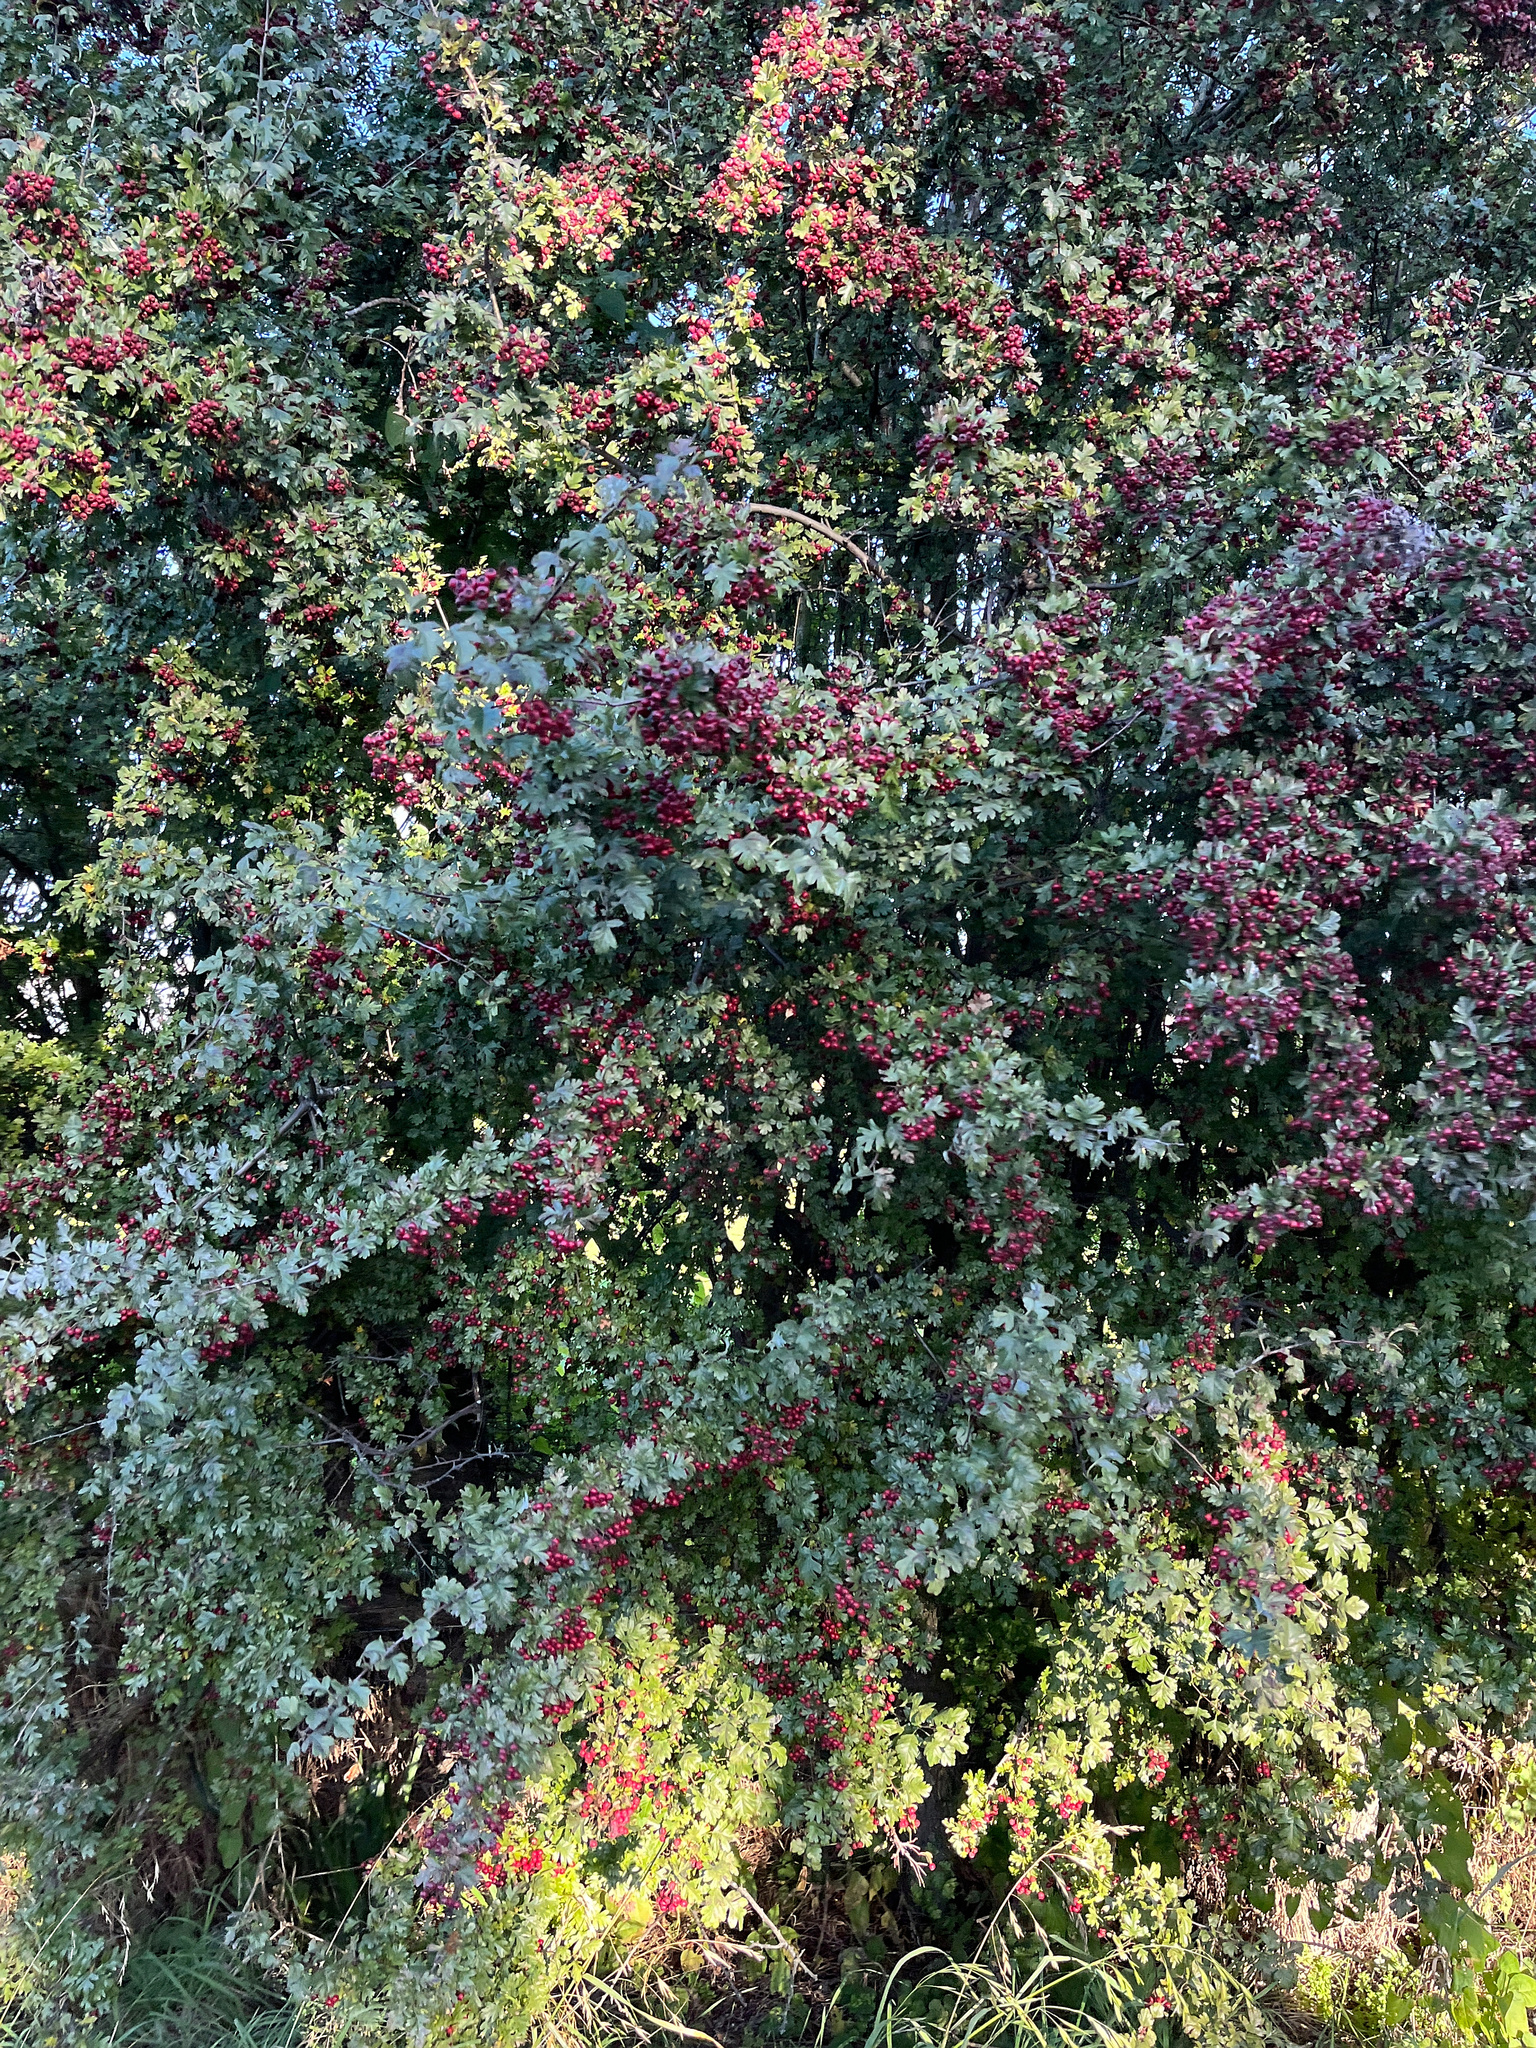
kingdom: Plantae
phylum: Tracheophyta
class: Magnoliopsida
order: Rosales
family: Rosaceae
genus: Crataegus
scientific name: Crataegus monogyna
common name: Hawthorn
